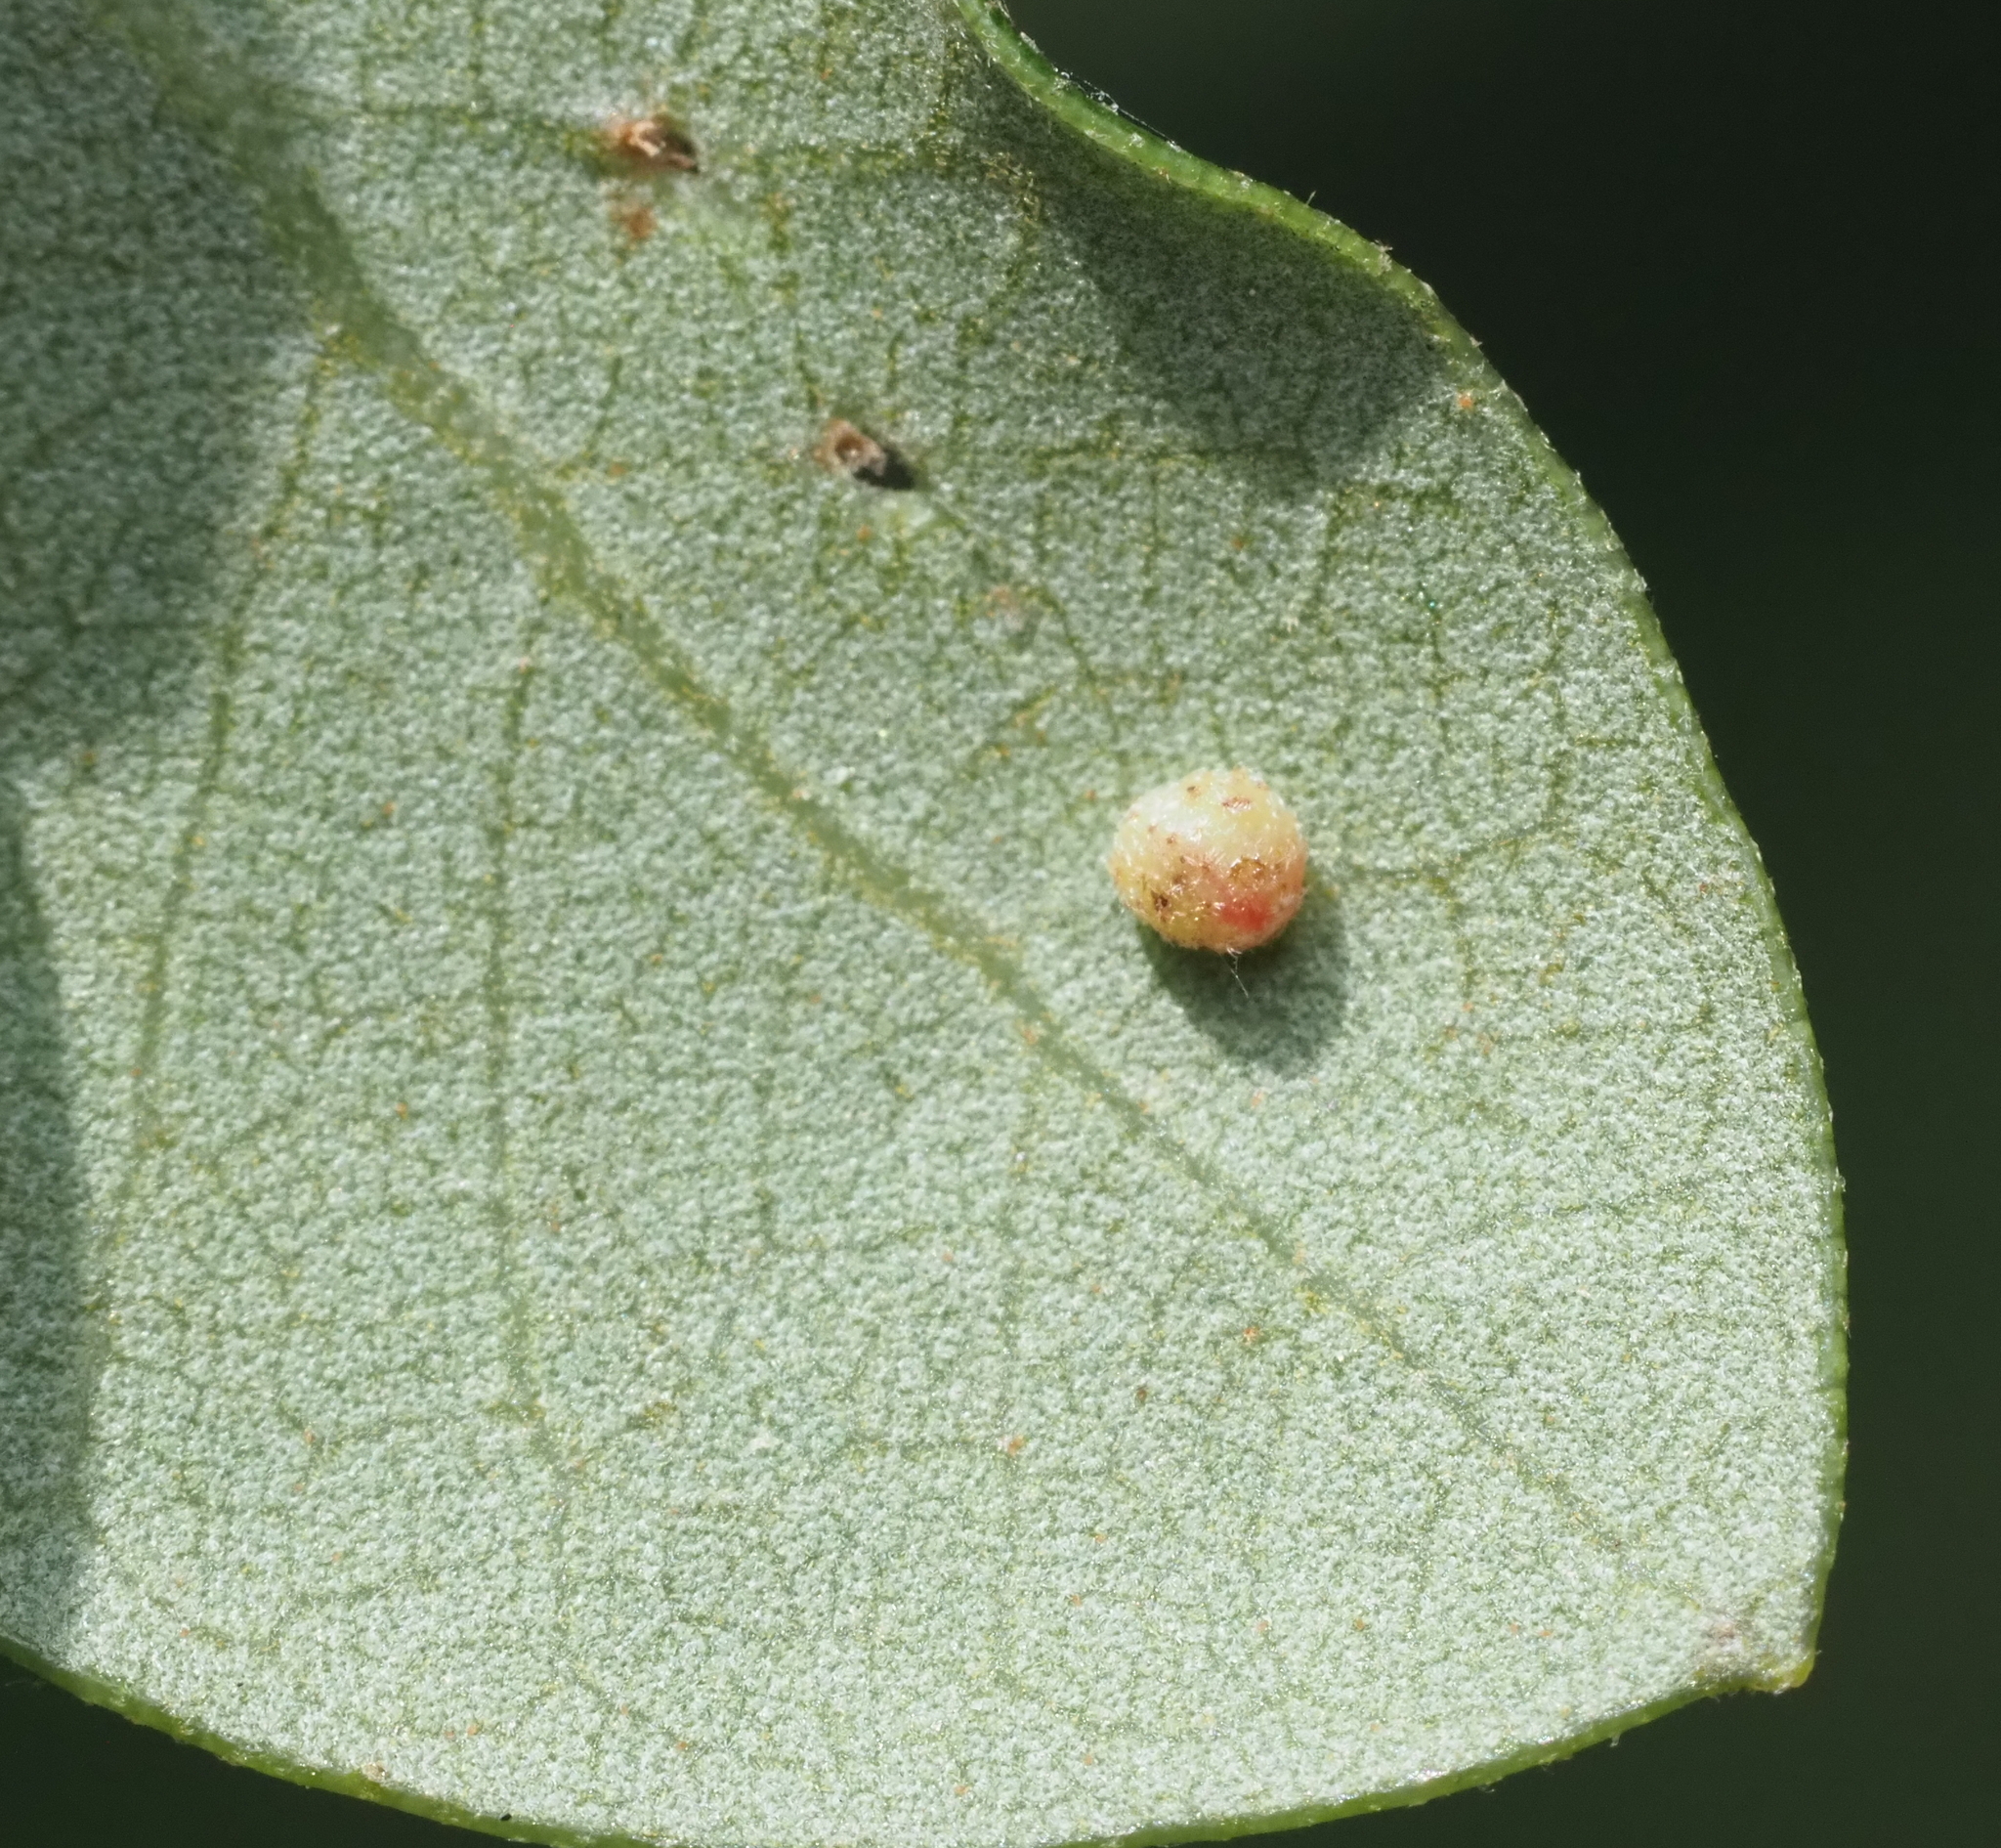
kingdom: Animalia
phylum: Arthropoda
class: Insecta
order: Hymenoptera
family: Cynipidae
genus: Belonocnema
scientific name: Belonocnema kinseyi
